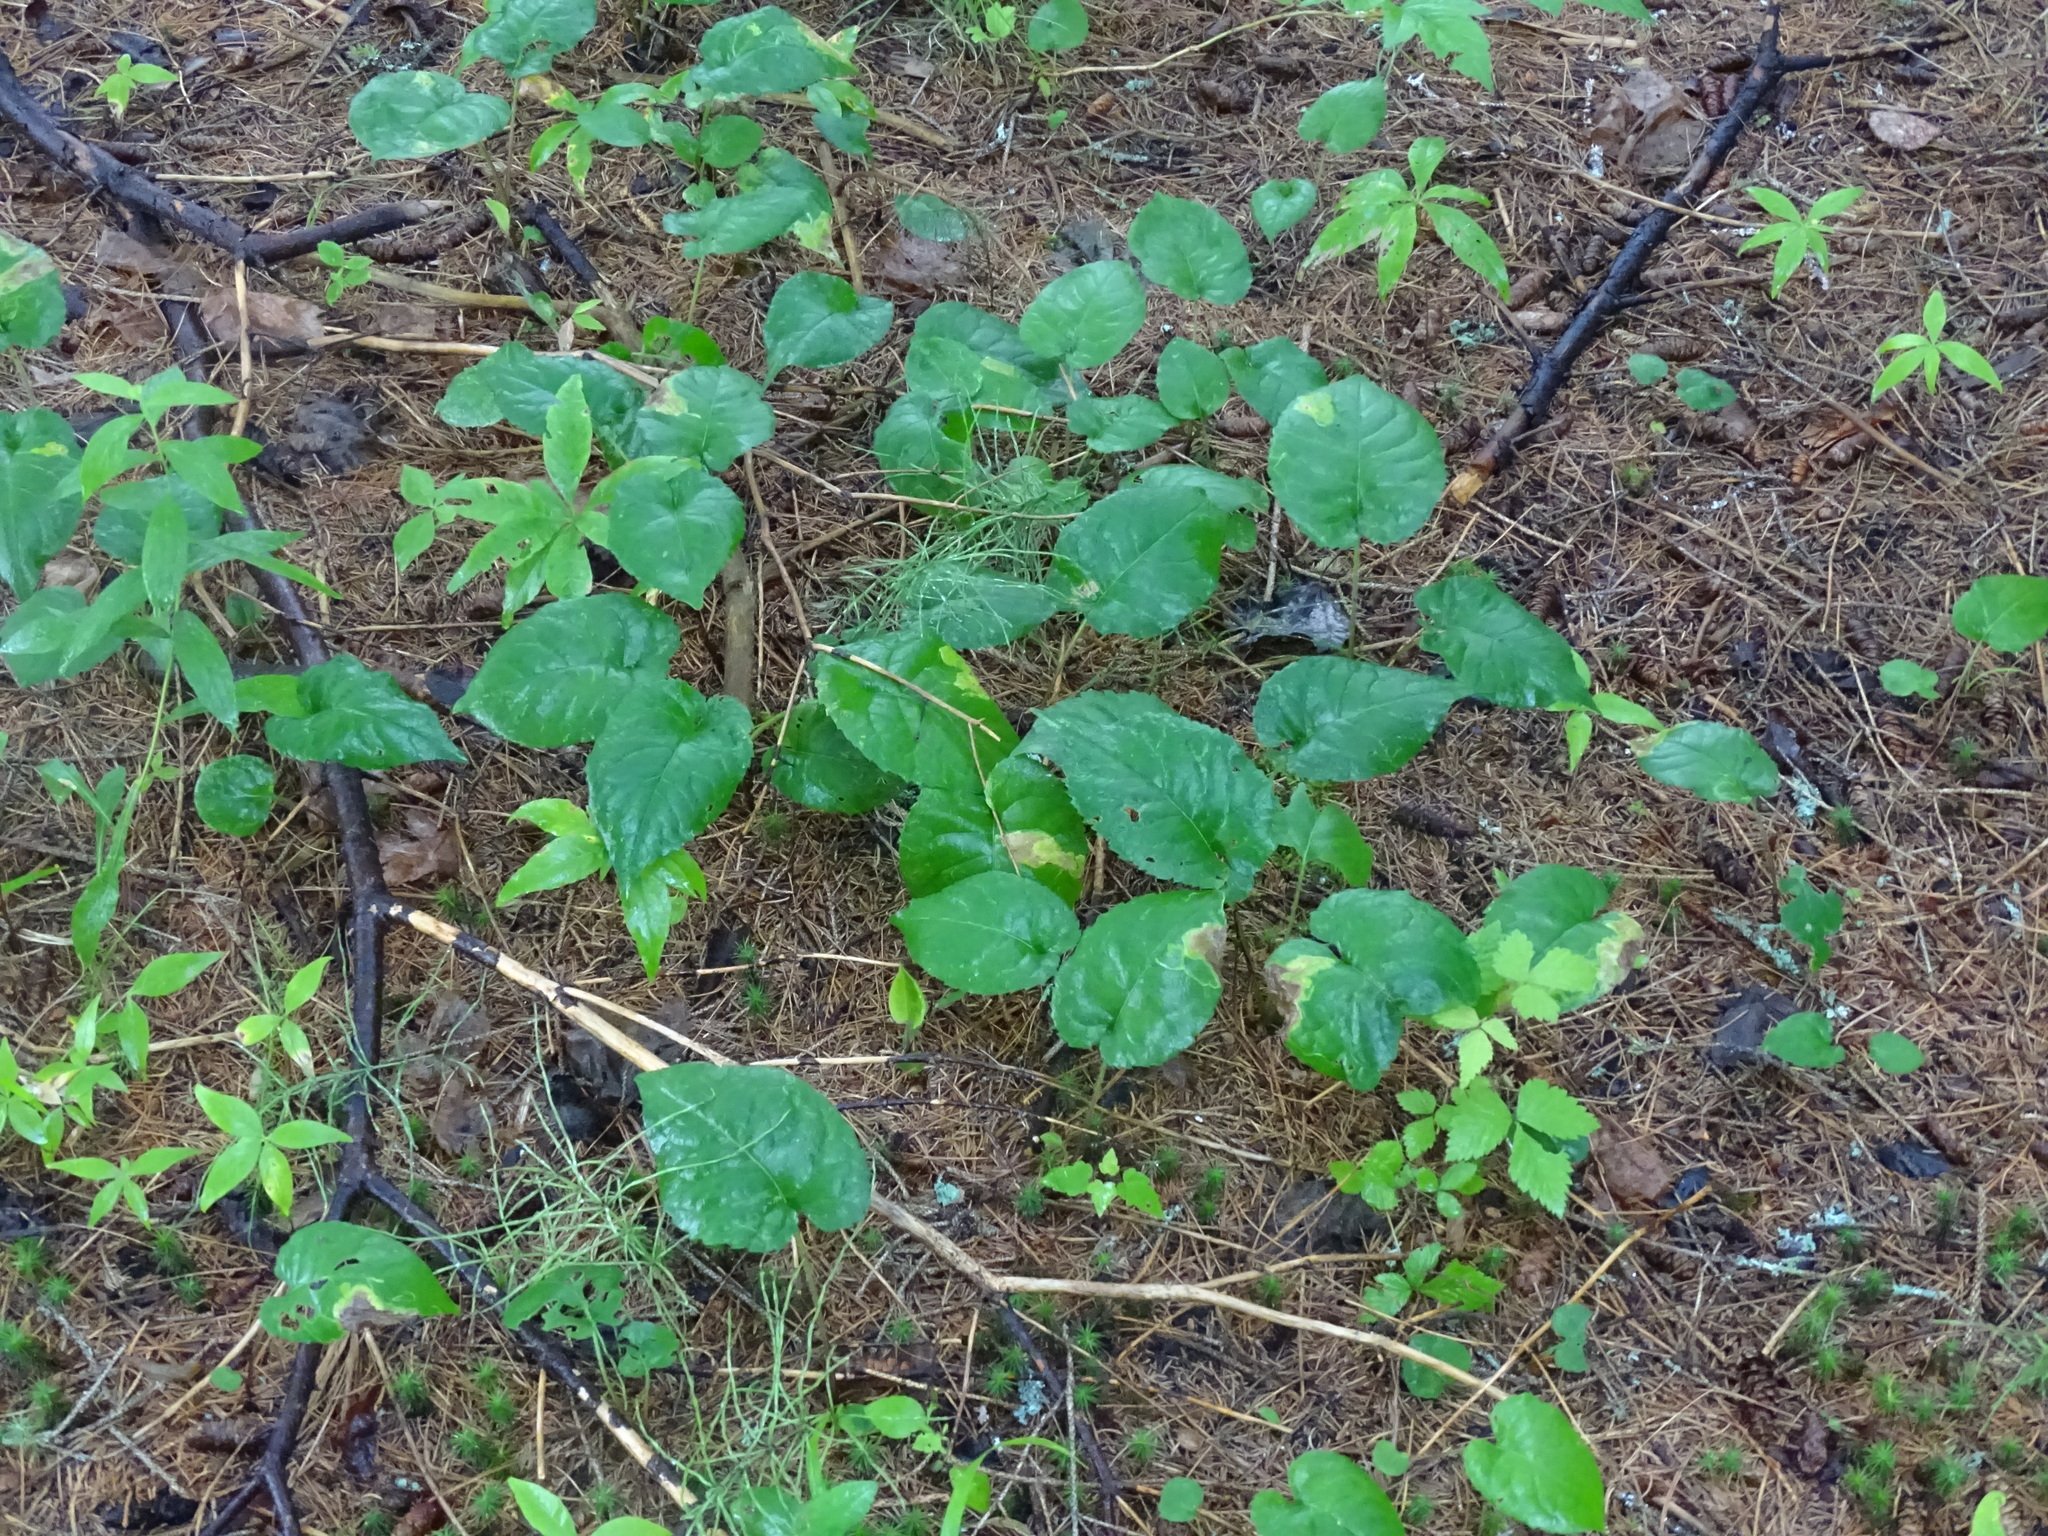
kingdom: Plantae
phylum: Tracheophyta
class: Magnoliopsida
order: Asterales
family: Asteraceae
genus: Eurybia
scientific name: Eurybia macrophylla
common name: Big-leaved aster
